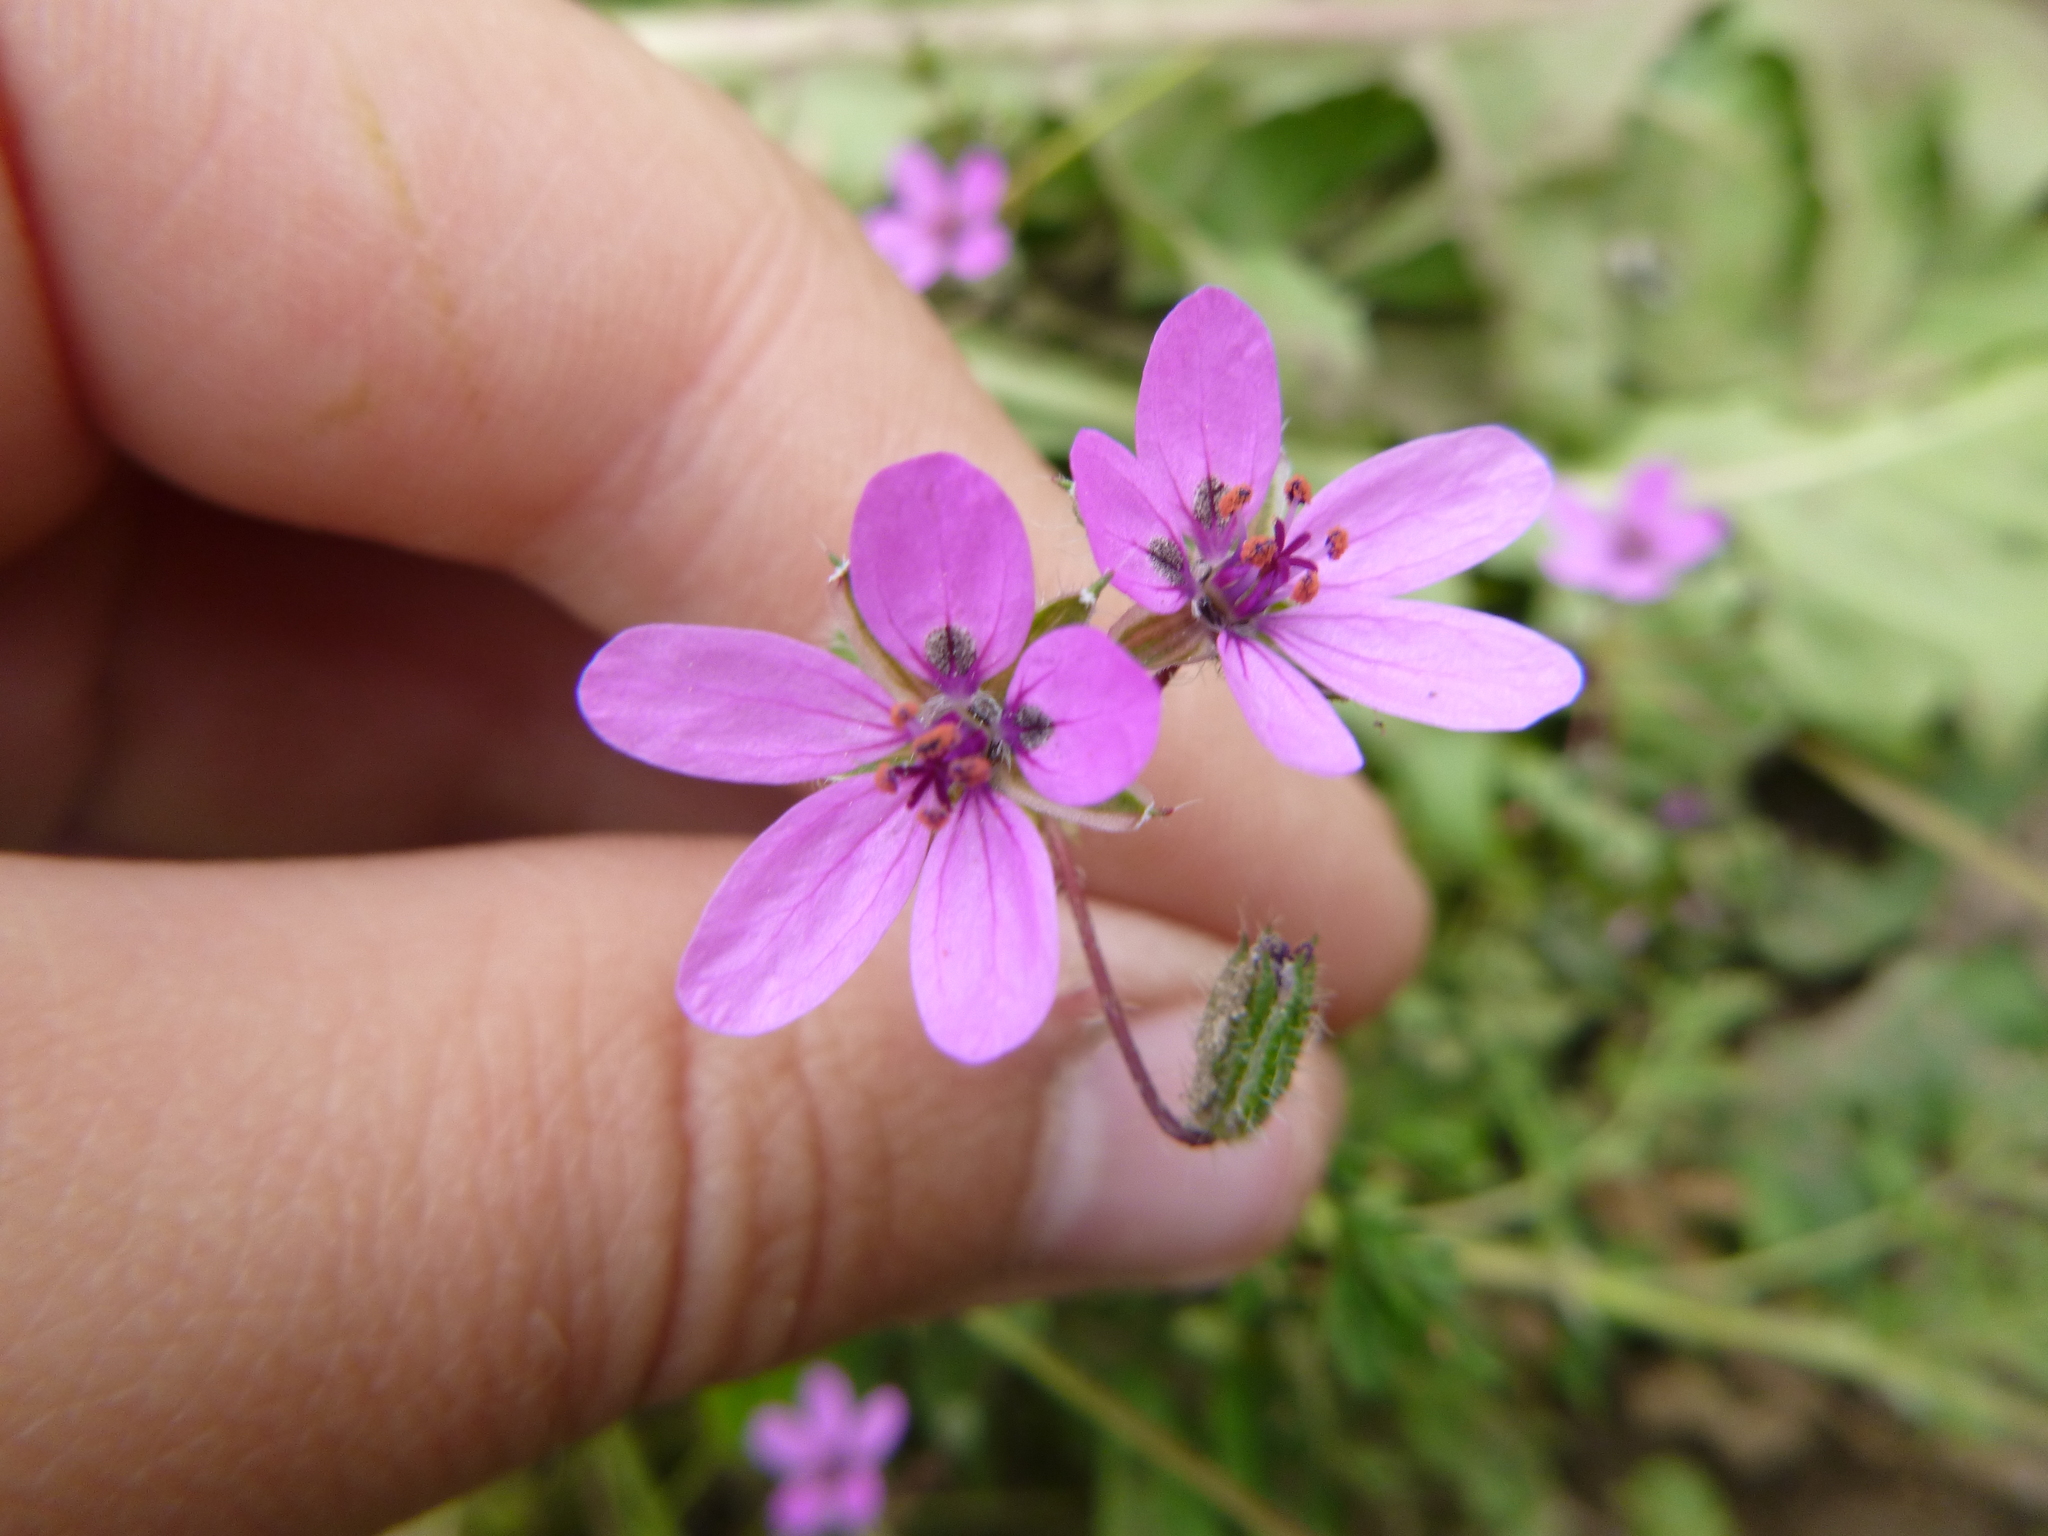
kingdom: Plantae
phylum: Tracheophyta
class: Magnoliopsida
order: Geraniales
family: Geraniaceae
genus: Erodium
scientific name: Erodium cicutarium
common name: Common stork's-bill
